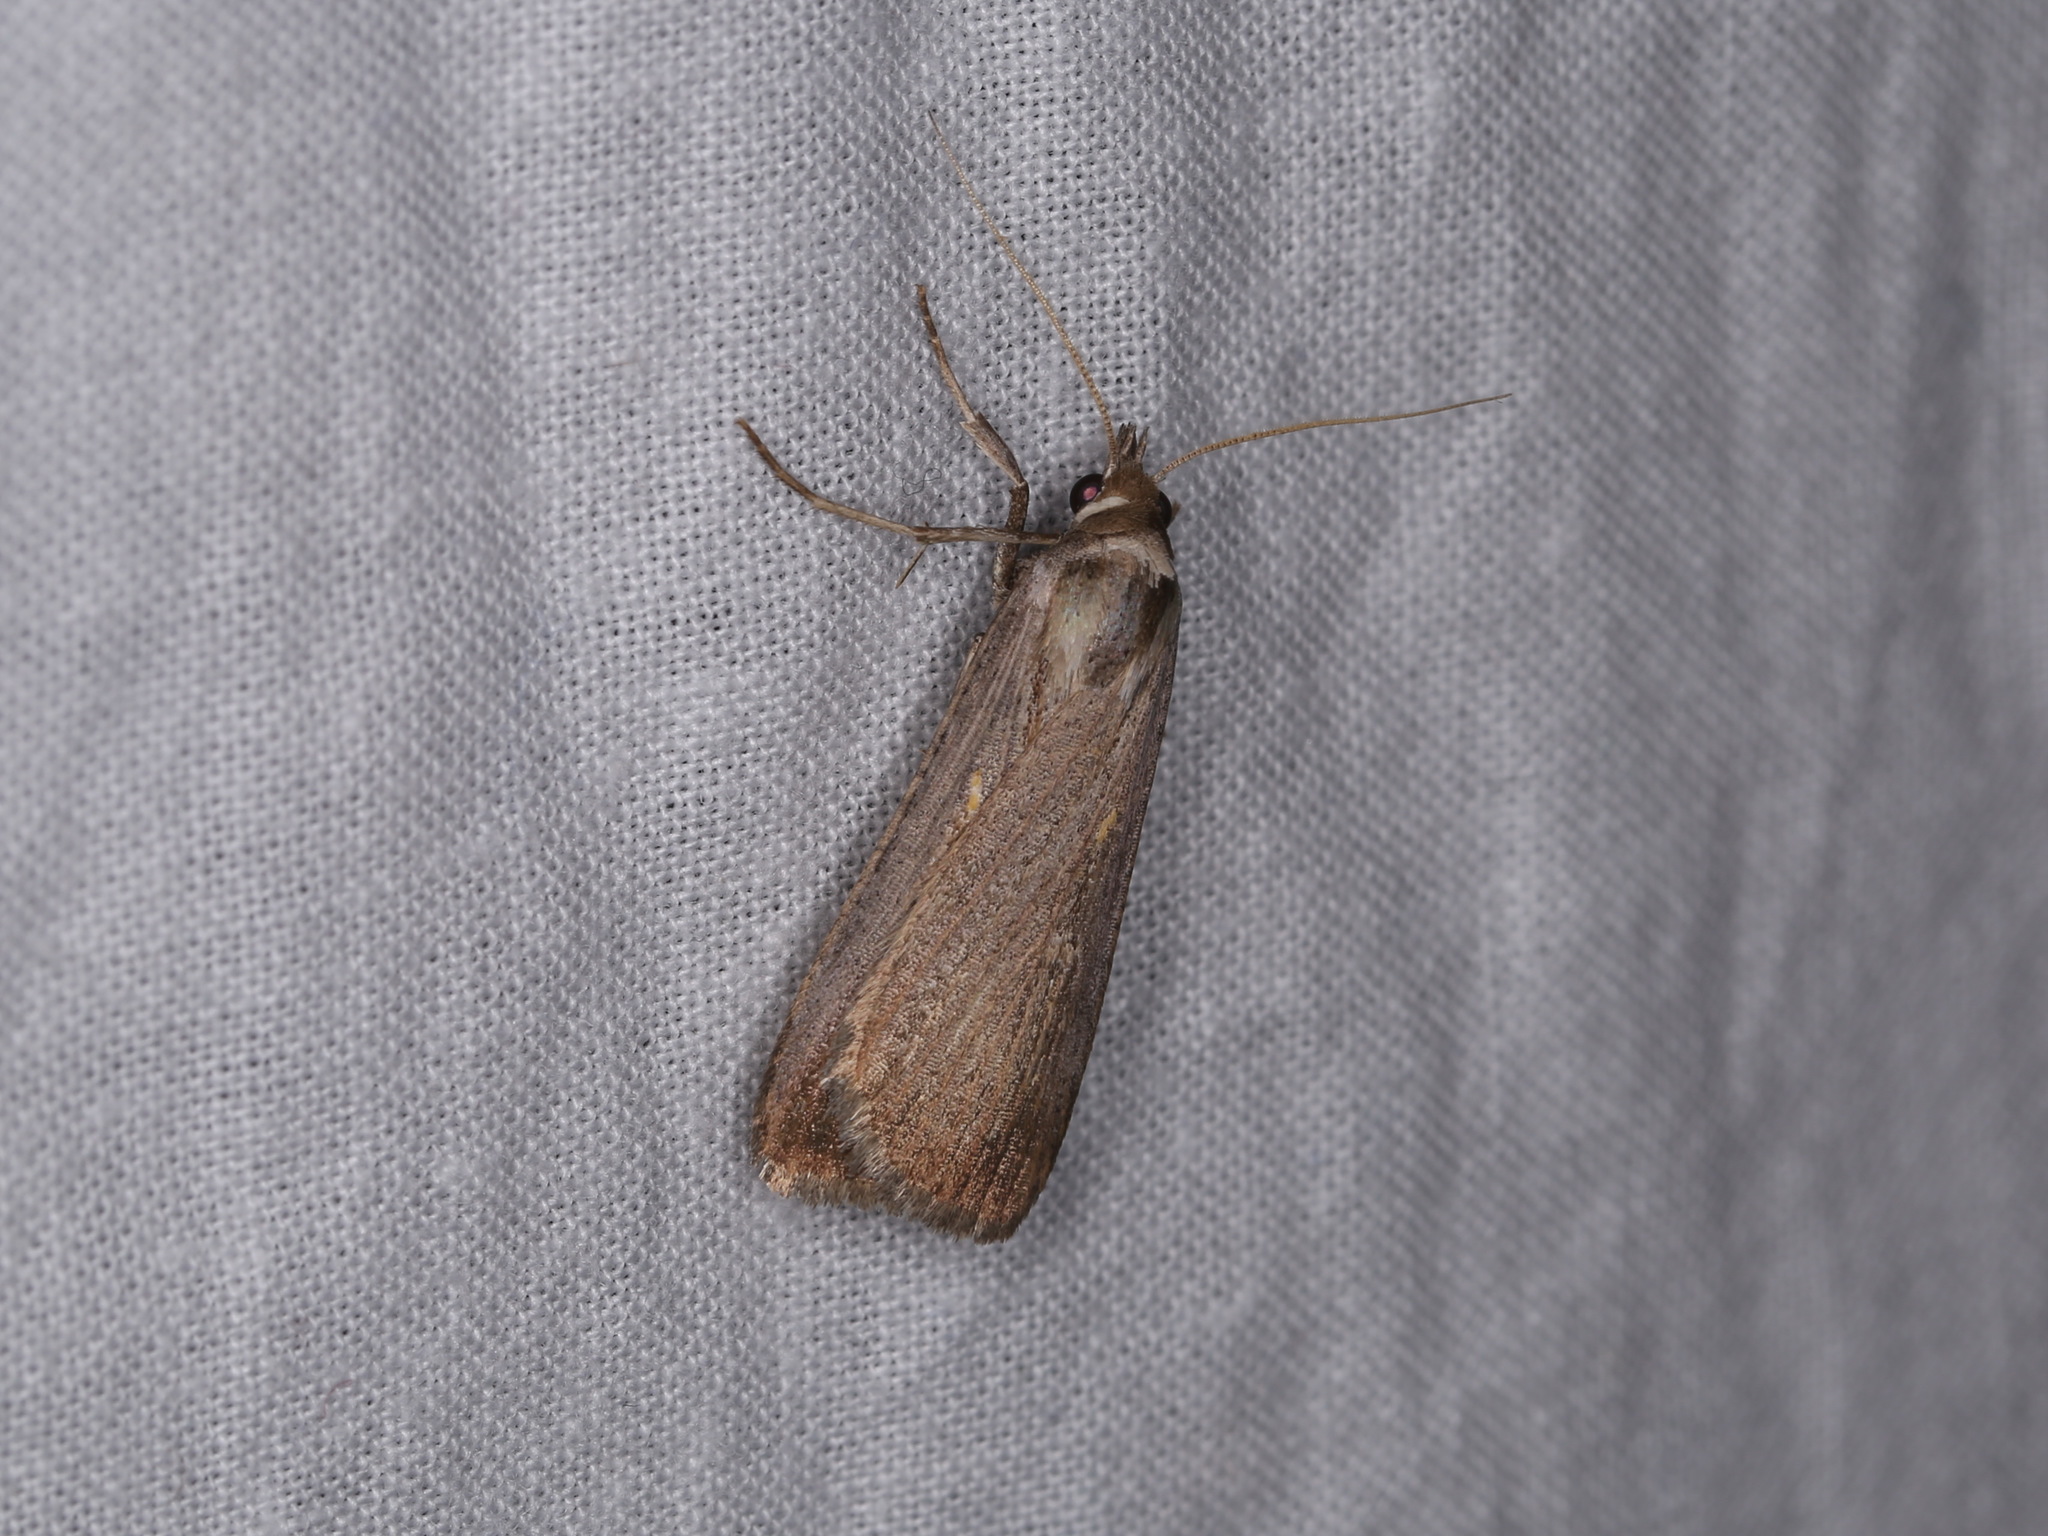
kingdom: Animalia
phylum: Arthropoda
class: Insecta
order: Lepidoptera
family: Noctuidae
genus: Tathorhynchus
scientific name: Tathorhynchus fallax
